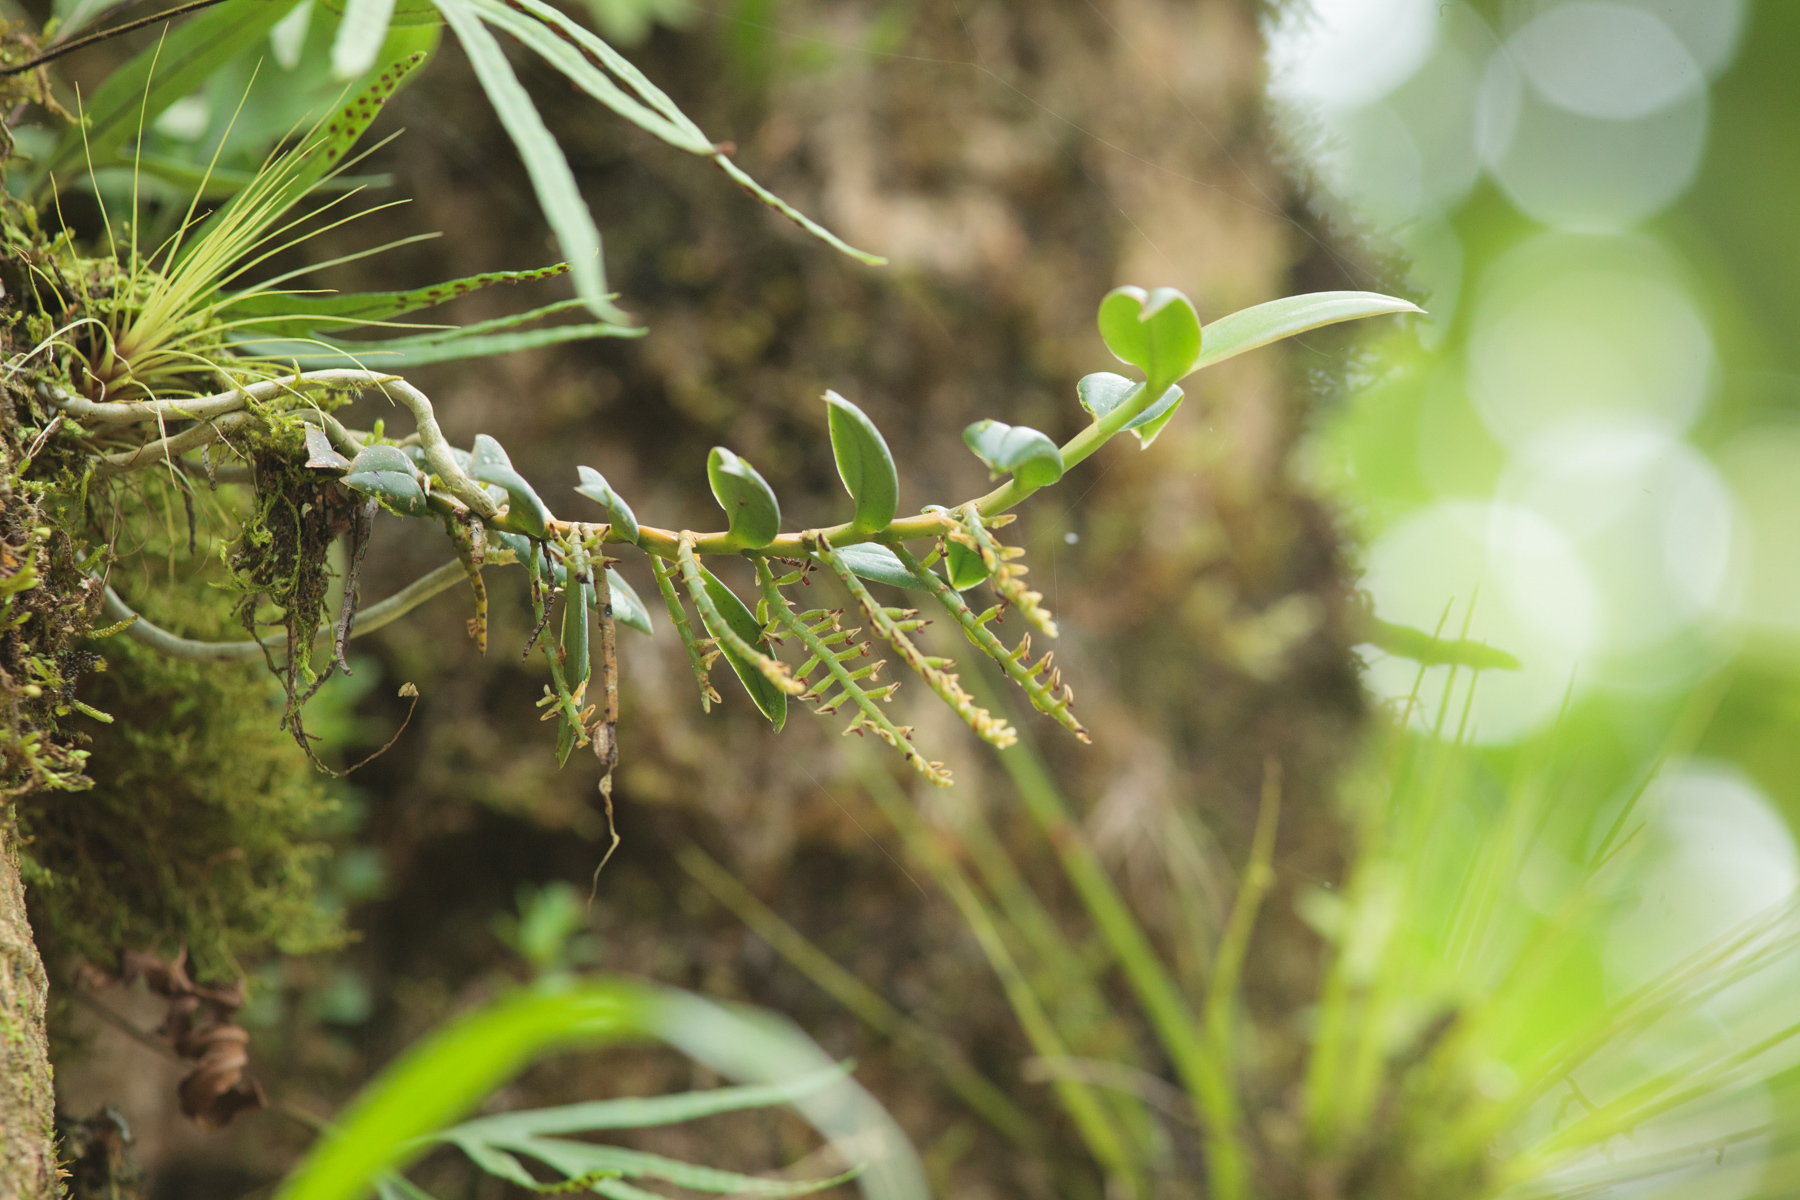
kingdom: Plantae
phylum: Tracheophyta
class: Liliopsida
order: Asparagales
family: Orchidaceae
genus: Campylocentrum
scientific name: Campylocentrum schiedei
